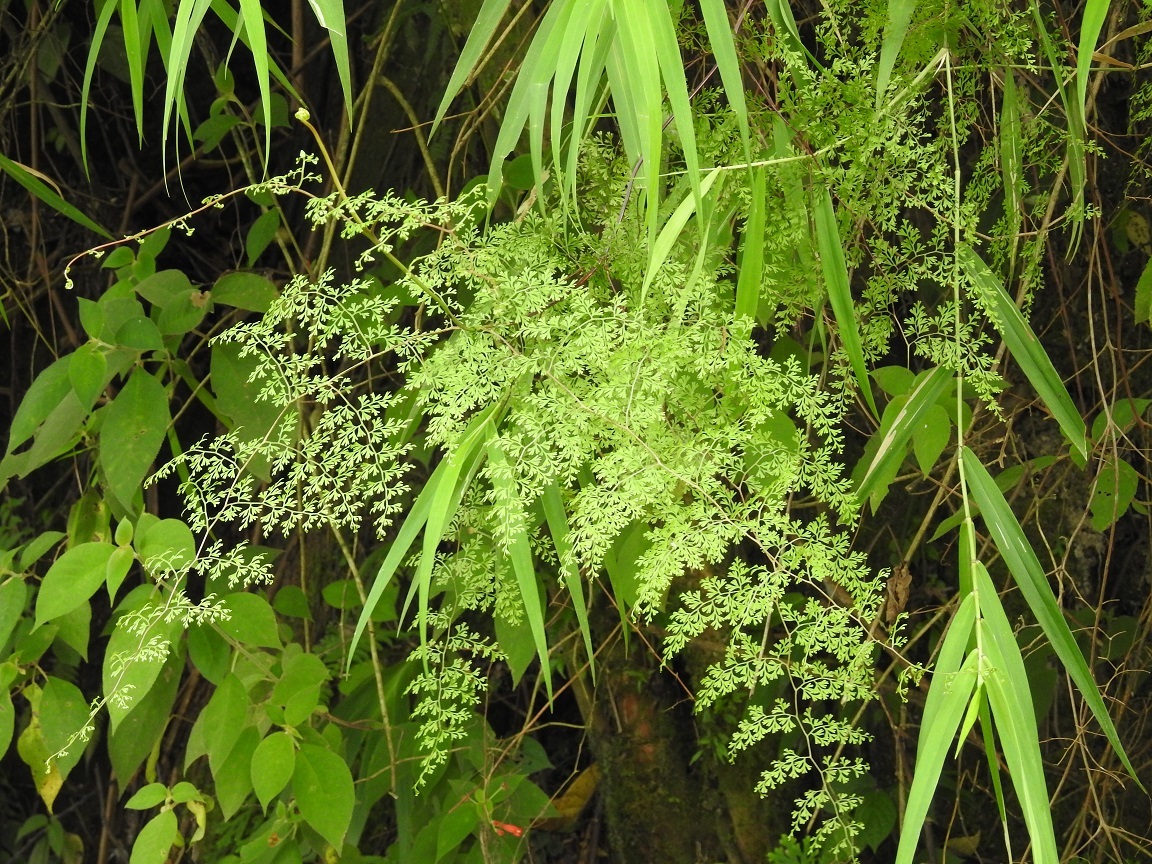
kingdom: Plantae
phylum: Tracheophyta
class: Polypodiopsida
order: Polypodiales
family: Lindsaeaceae
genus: Odontosoria
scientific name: Odontosoria guatemalensis
